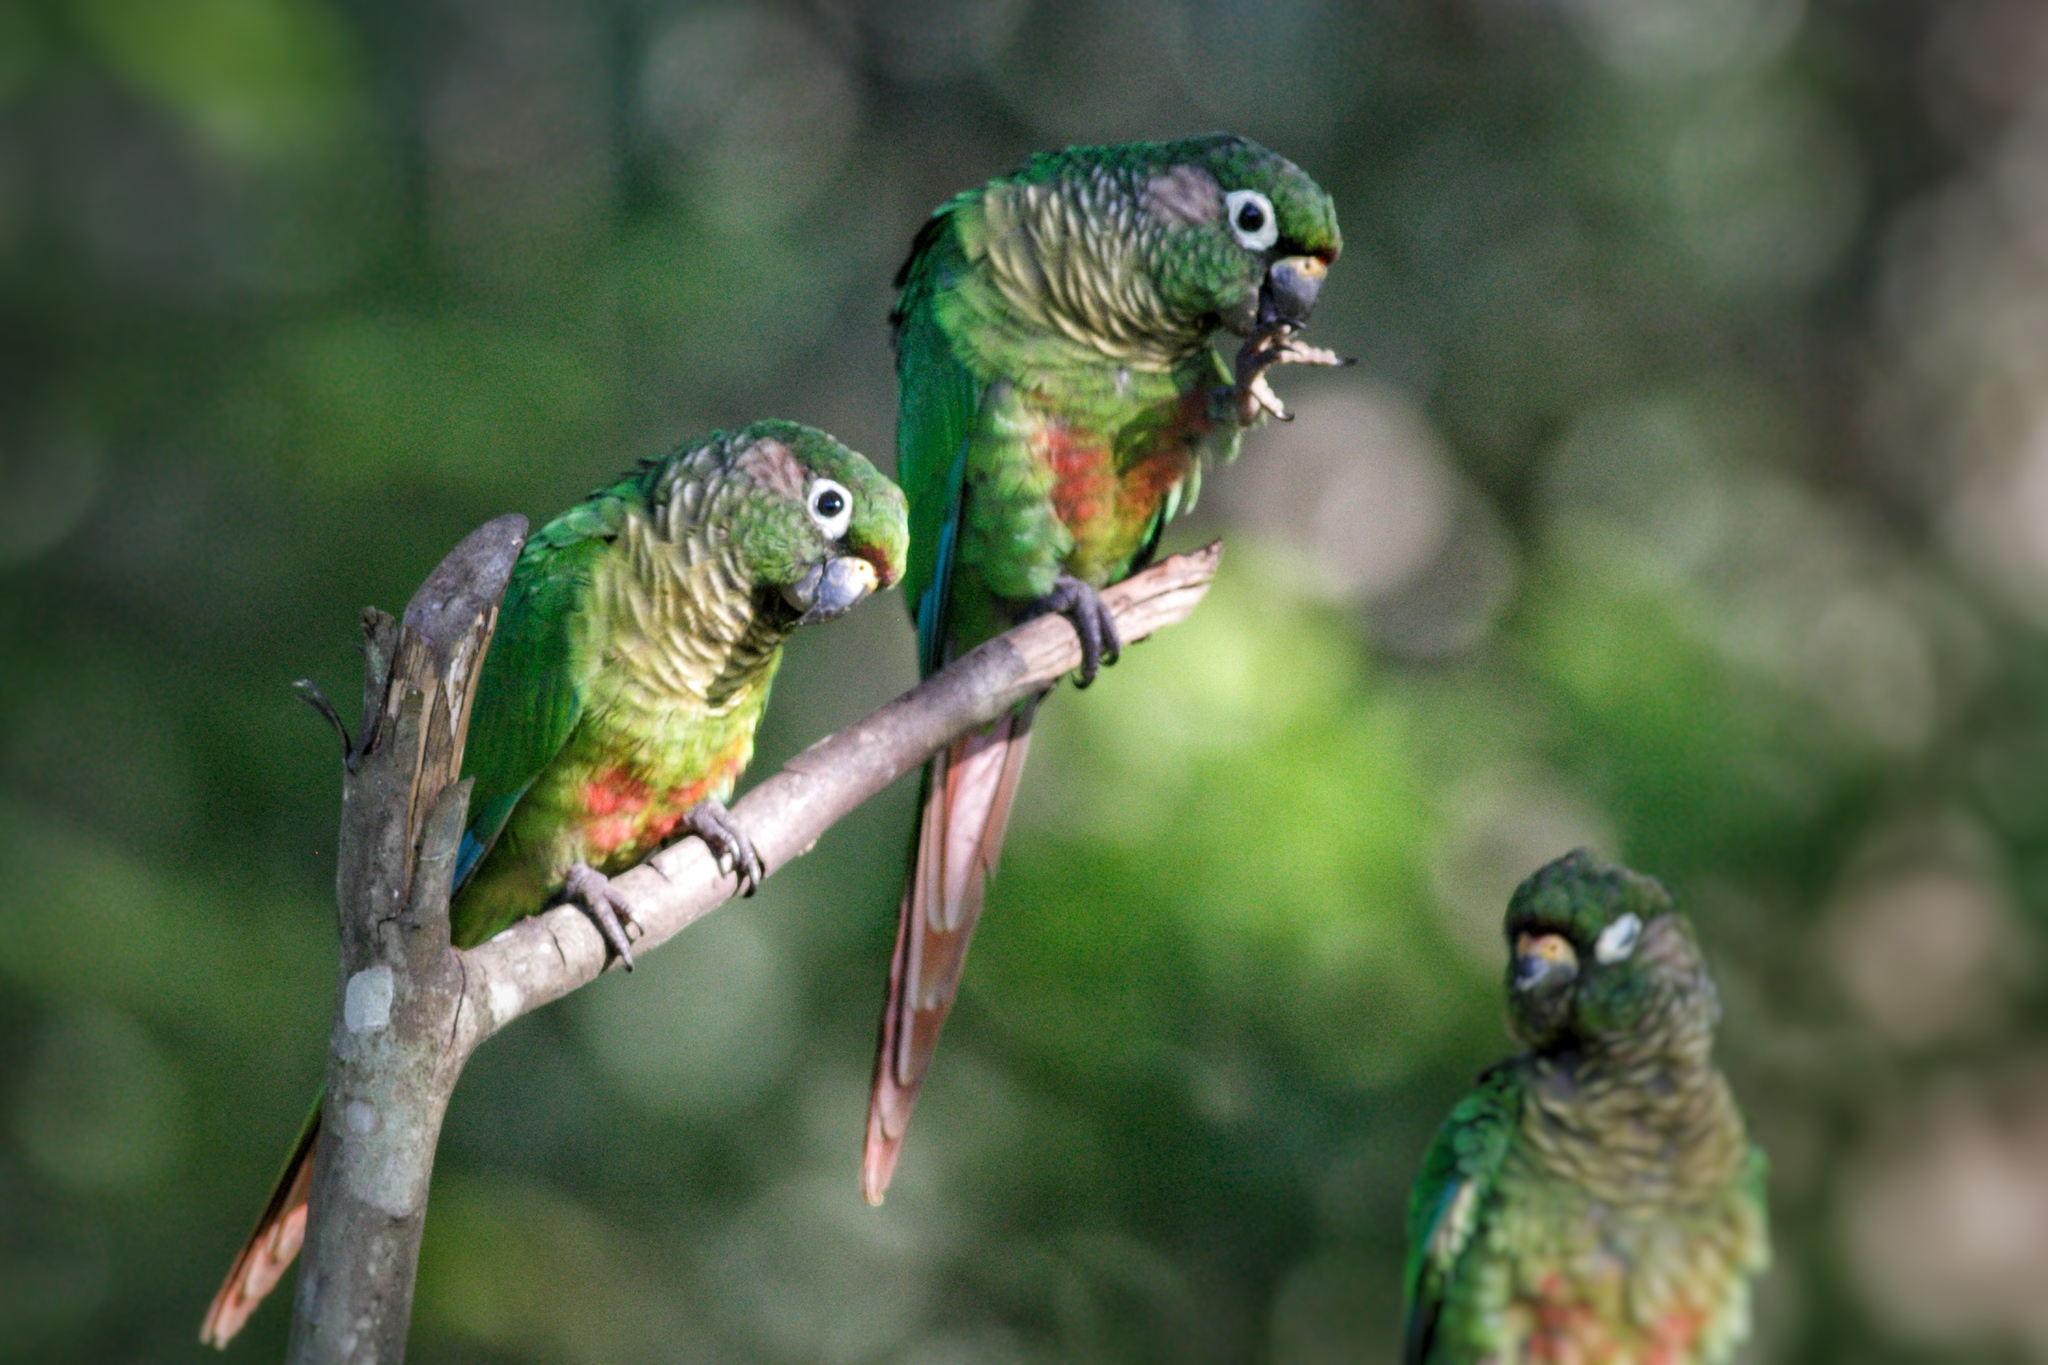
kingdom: Animalia
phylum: Chordata
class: Aves
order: Psittaciformes
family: Psittacidae
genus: Pyrrhura
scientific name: Pyrrhura frontalis
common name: Maroon-bellied parakeet
